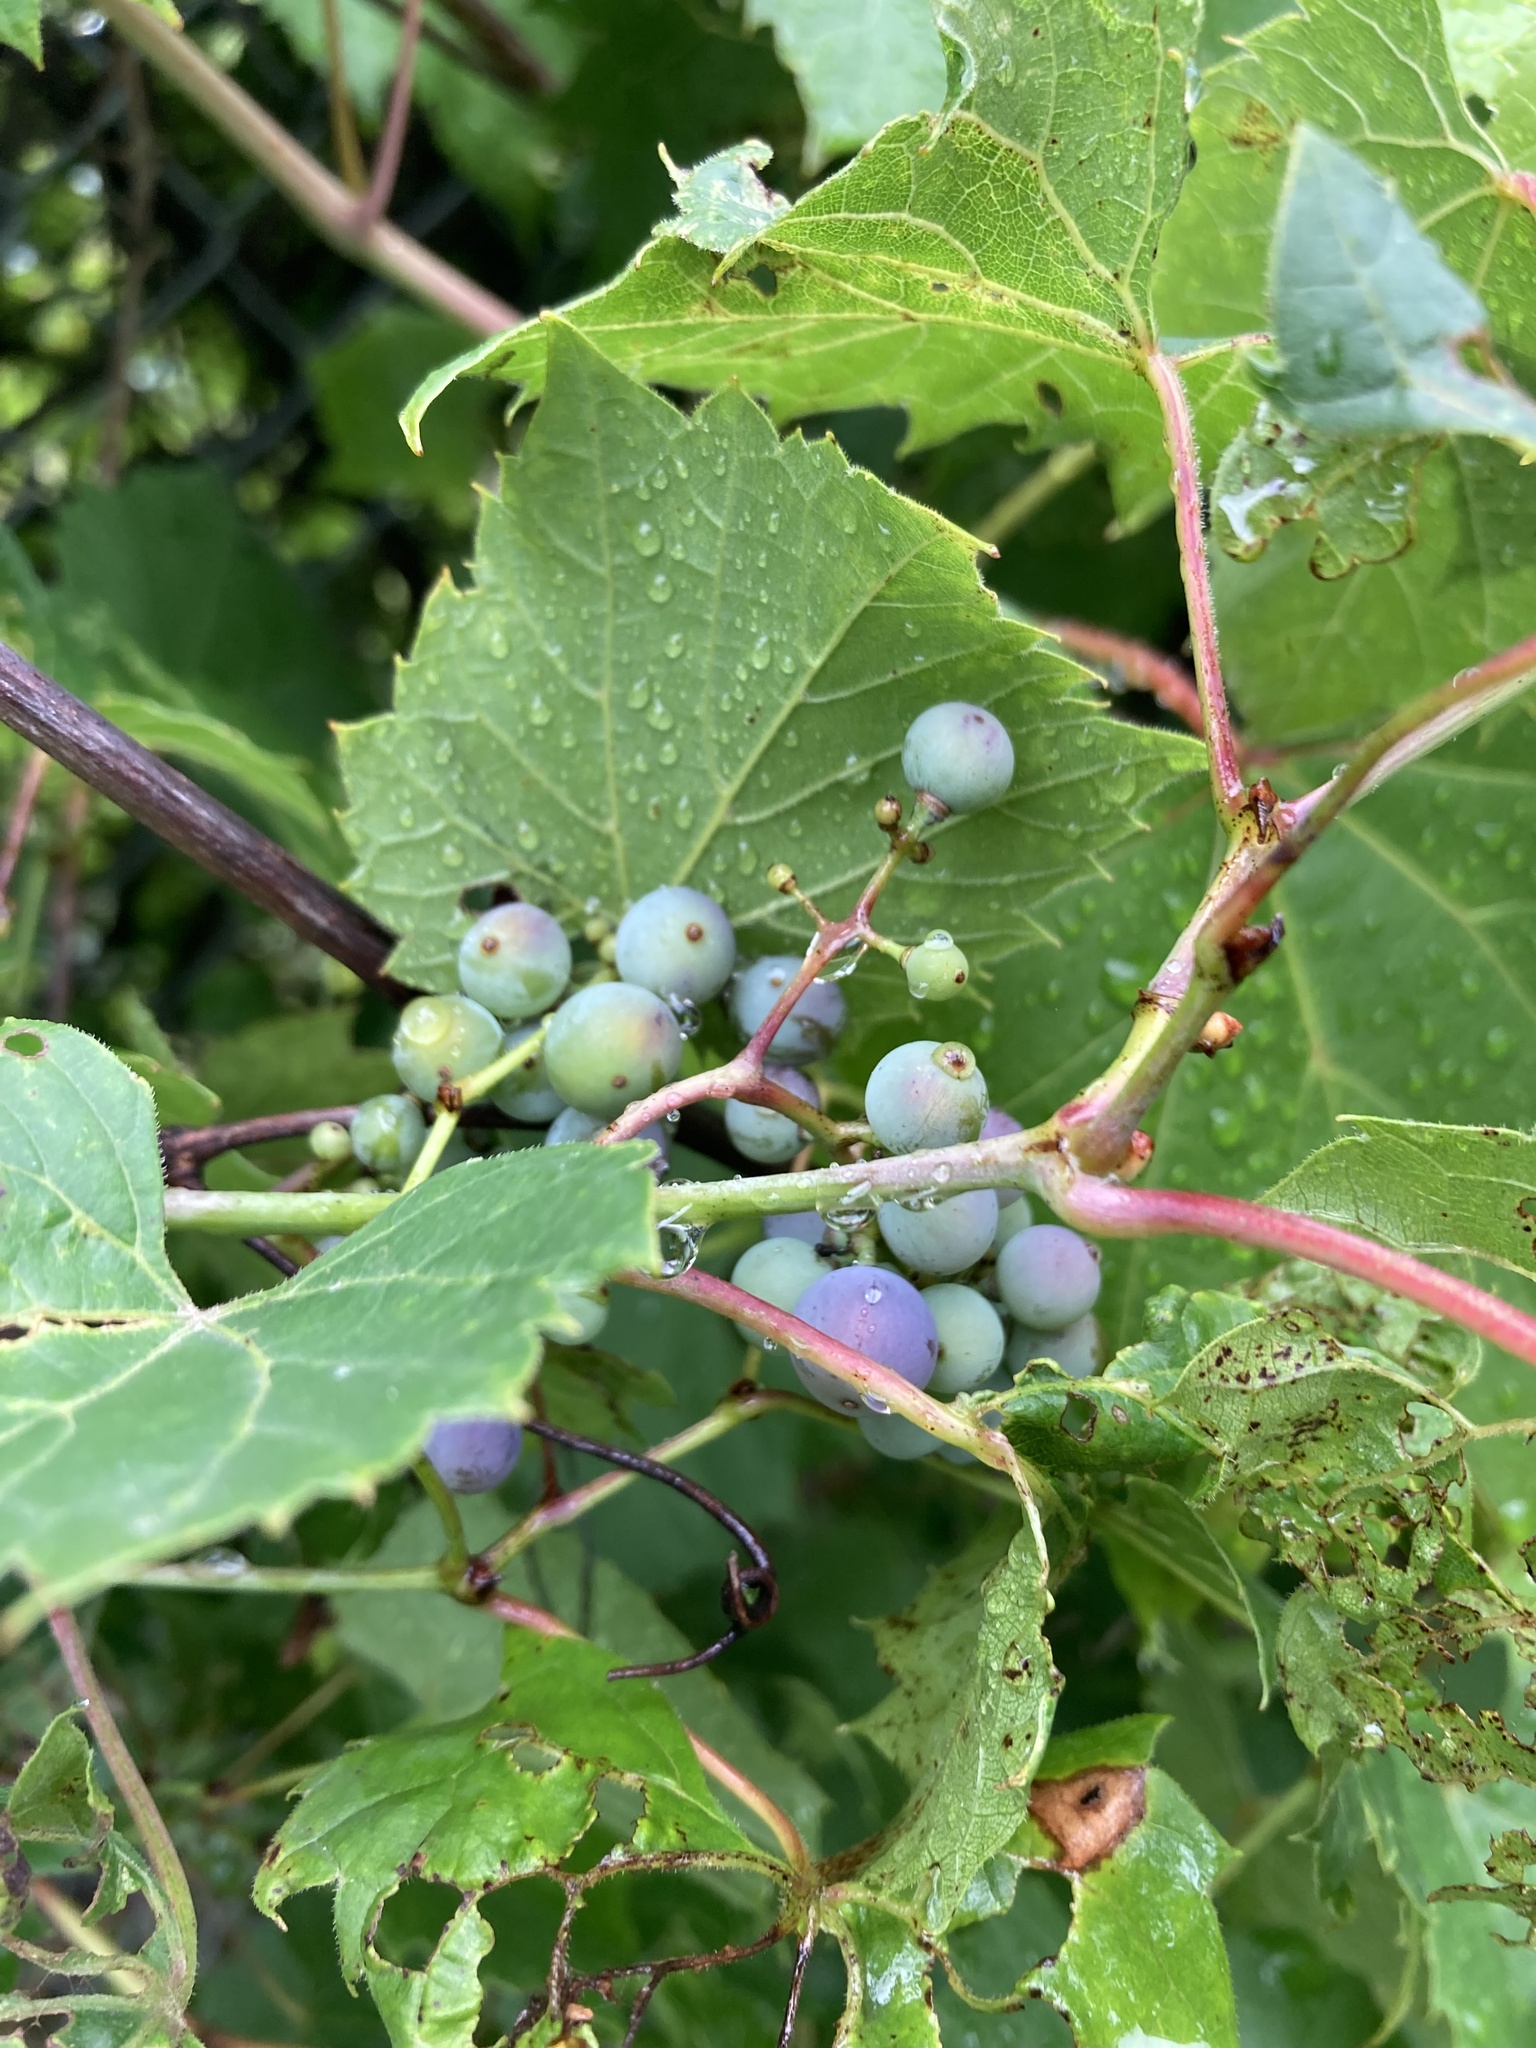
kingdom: Plantae
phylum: Tracheophyta
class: Magnoliopsida
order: Vitales
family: Vitaceae
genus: Vitis
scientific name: Vitis riparia
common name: Frost grape
